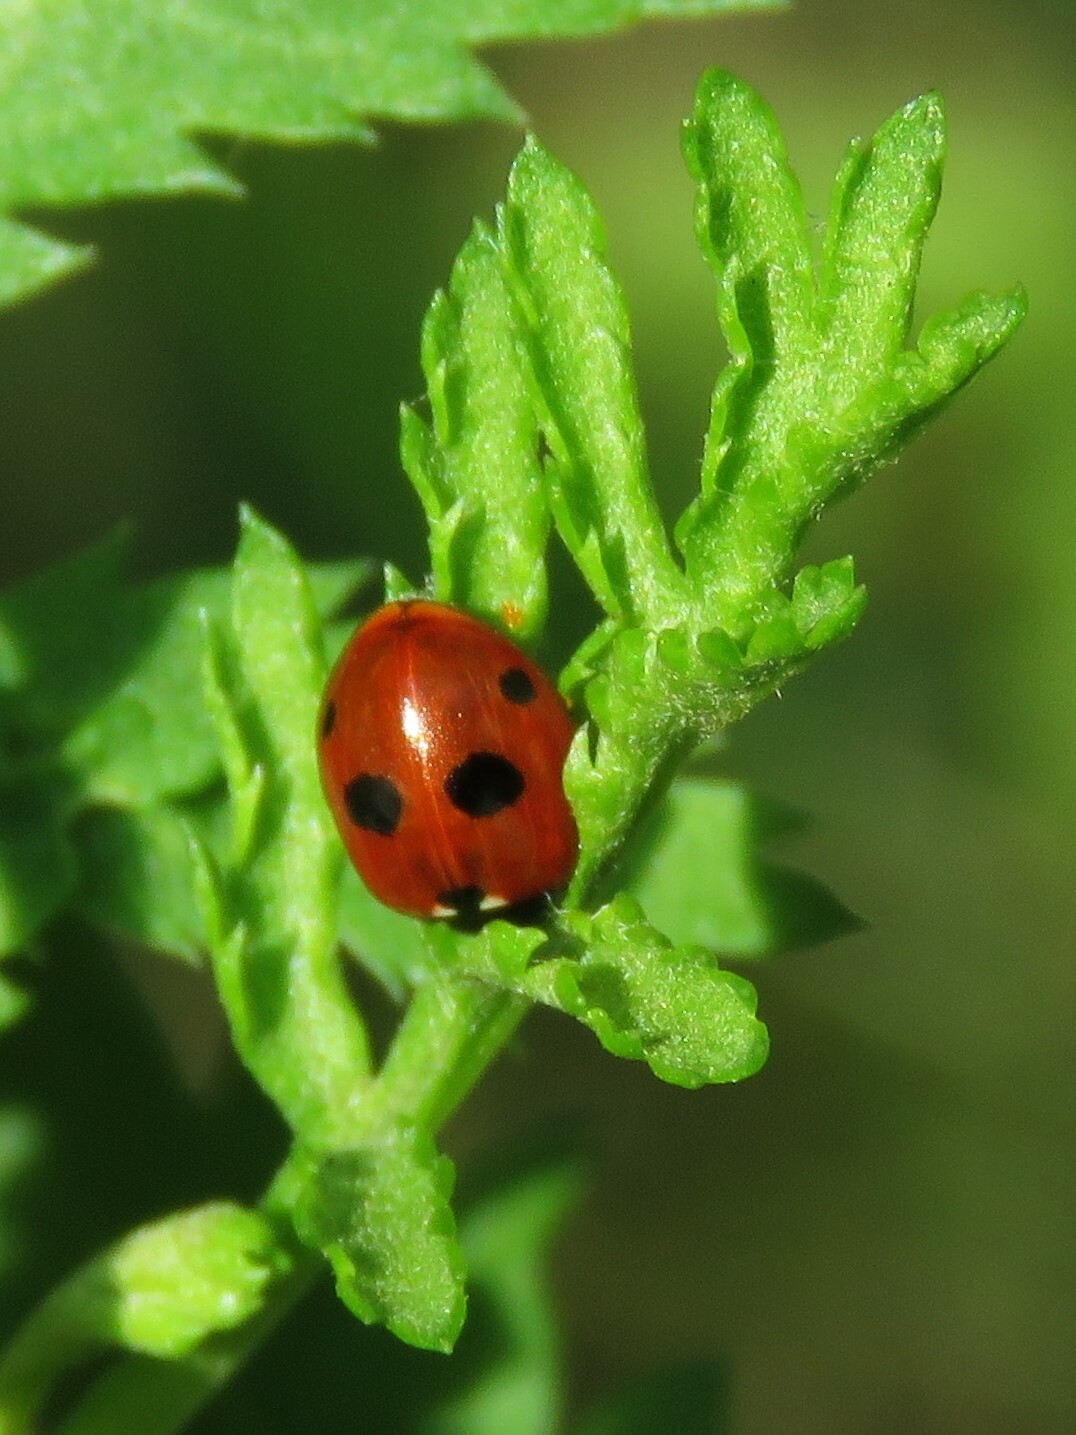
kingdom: Animalia
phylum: Arthropoda
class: Insecta
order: Coleoptera
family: Coccinellidae
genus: Coccinella
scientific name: Coccinella quinquepunctata
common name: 5-spot ladybird
